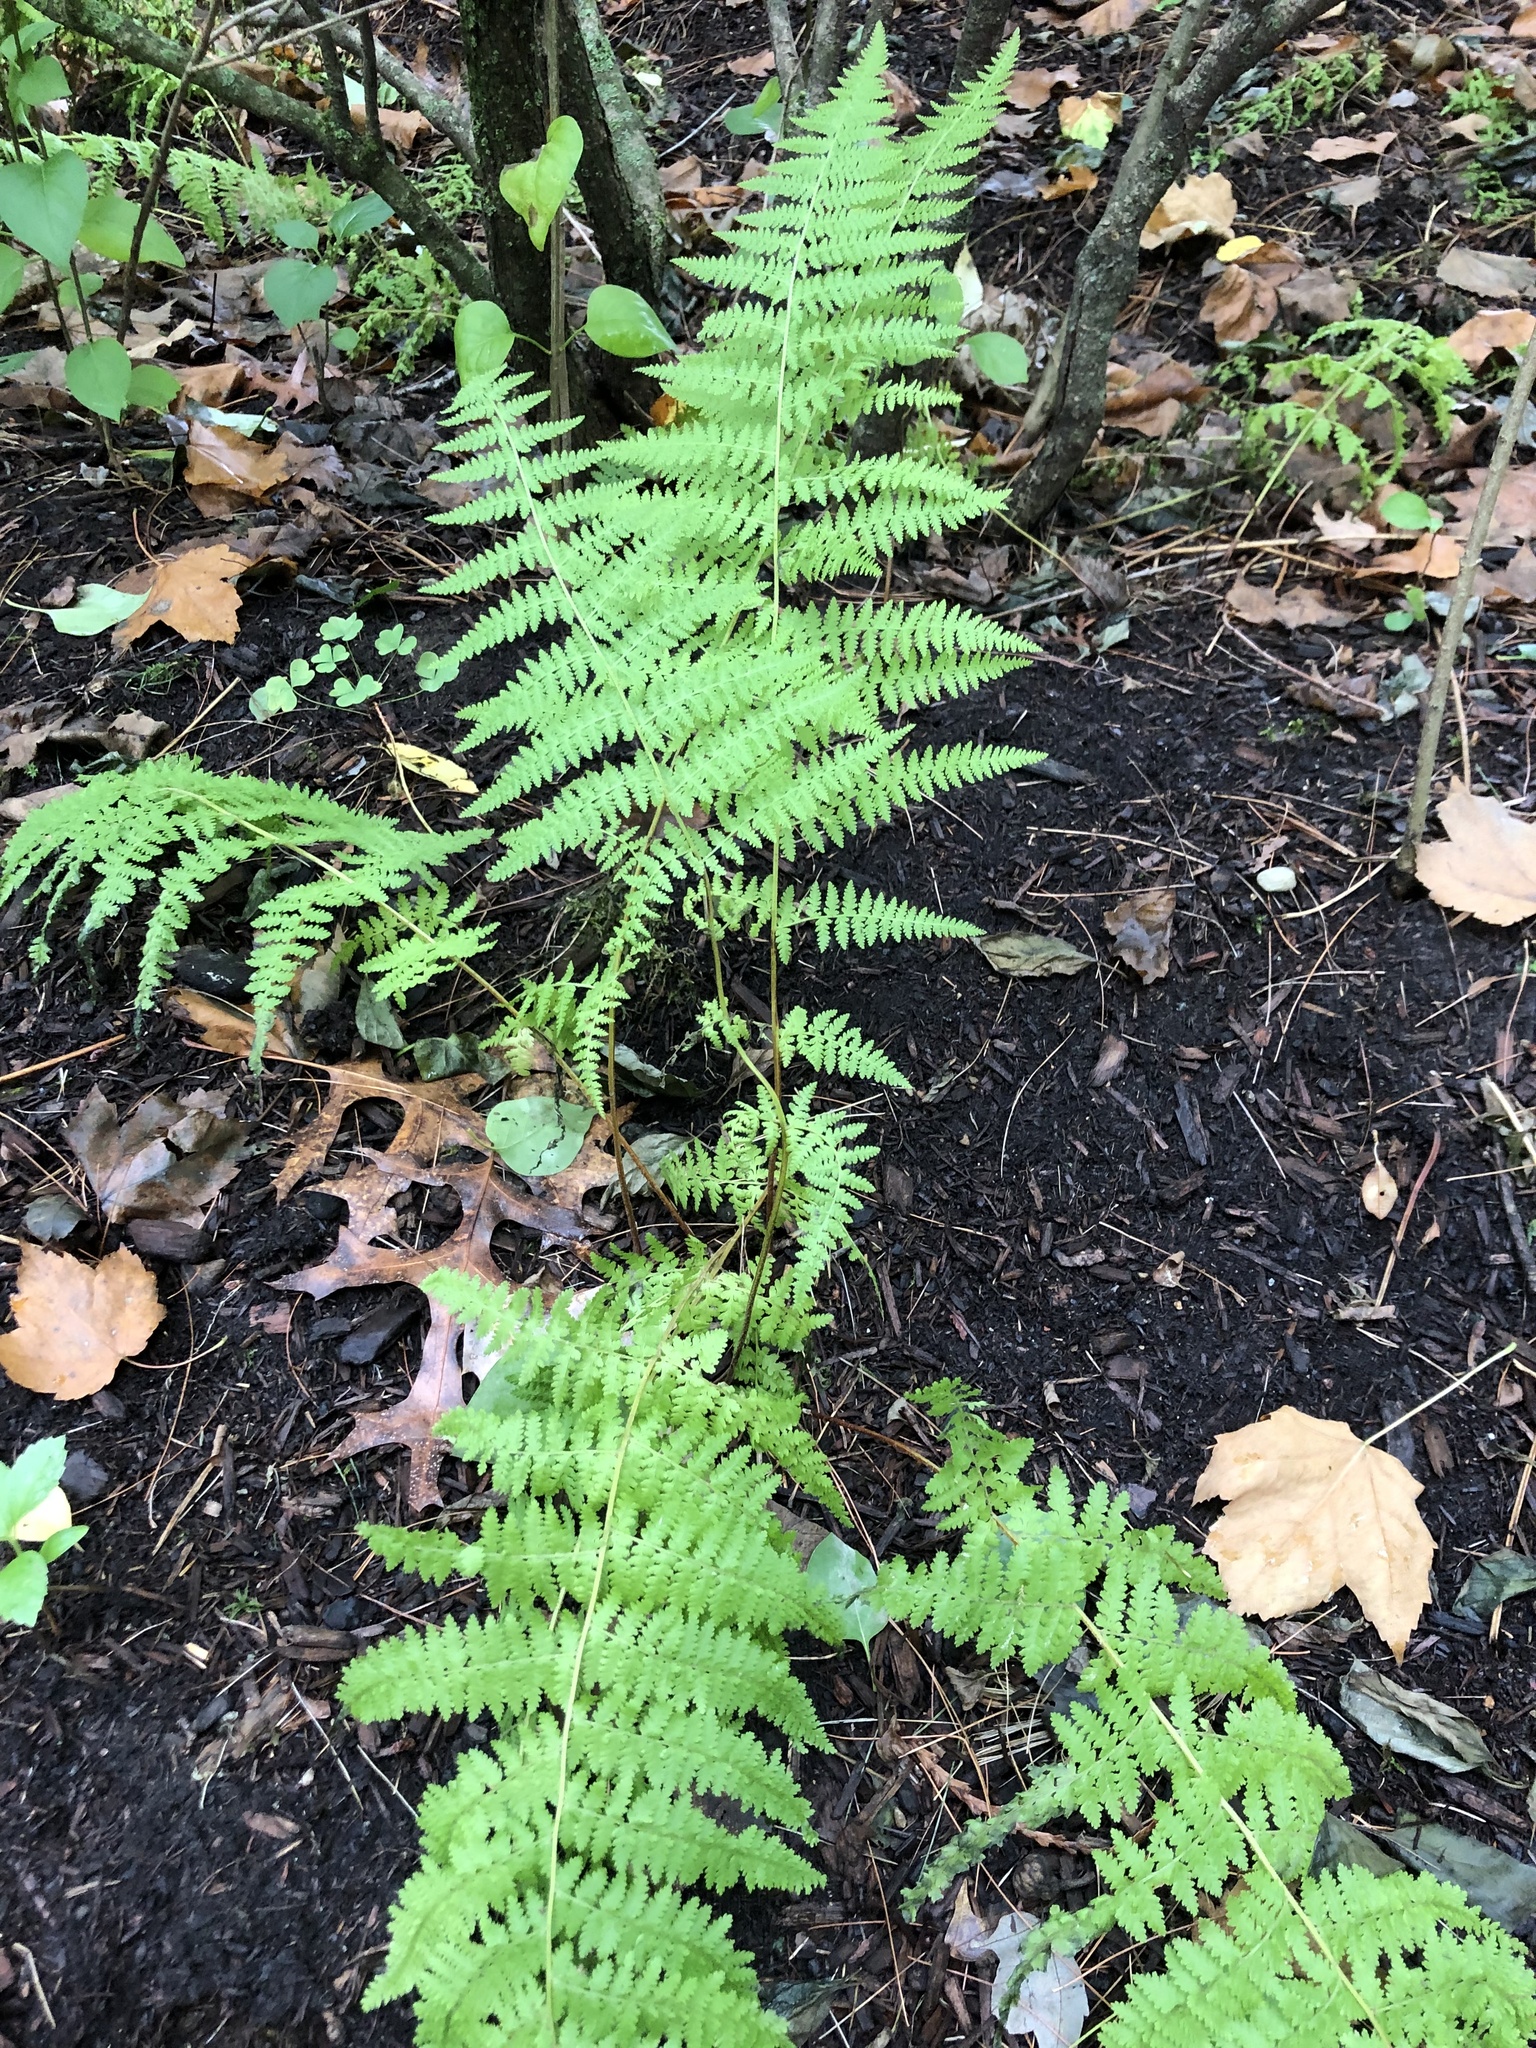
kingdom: Plantae
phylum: Tracheophyta
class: Polypodiopsida
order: Polypodiales
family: Dennstaedtiaceae
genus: Sitobolium
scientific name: Sitobolium punctilobum
